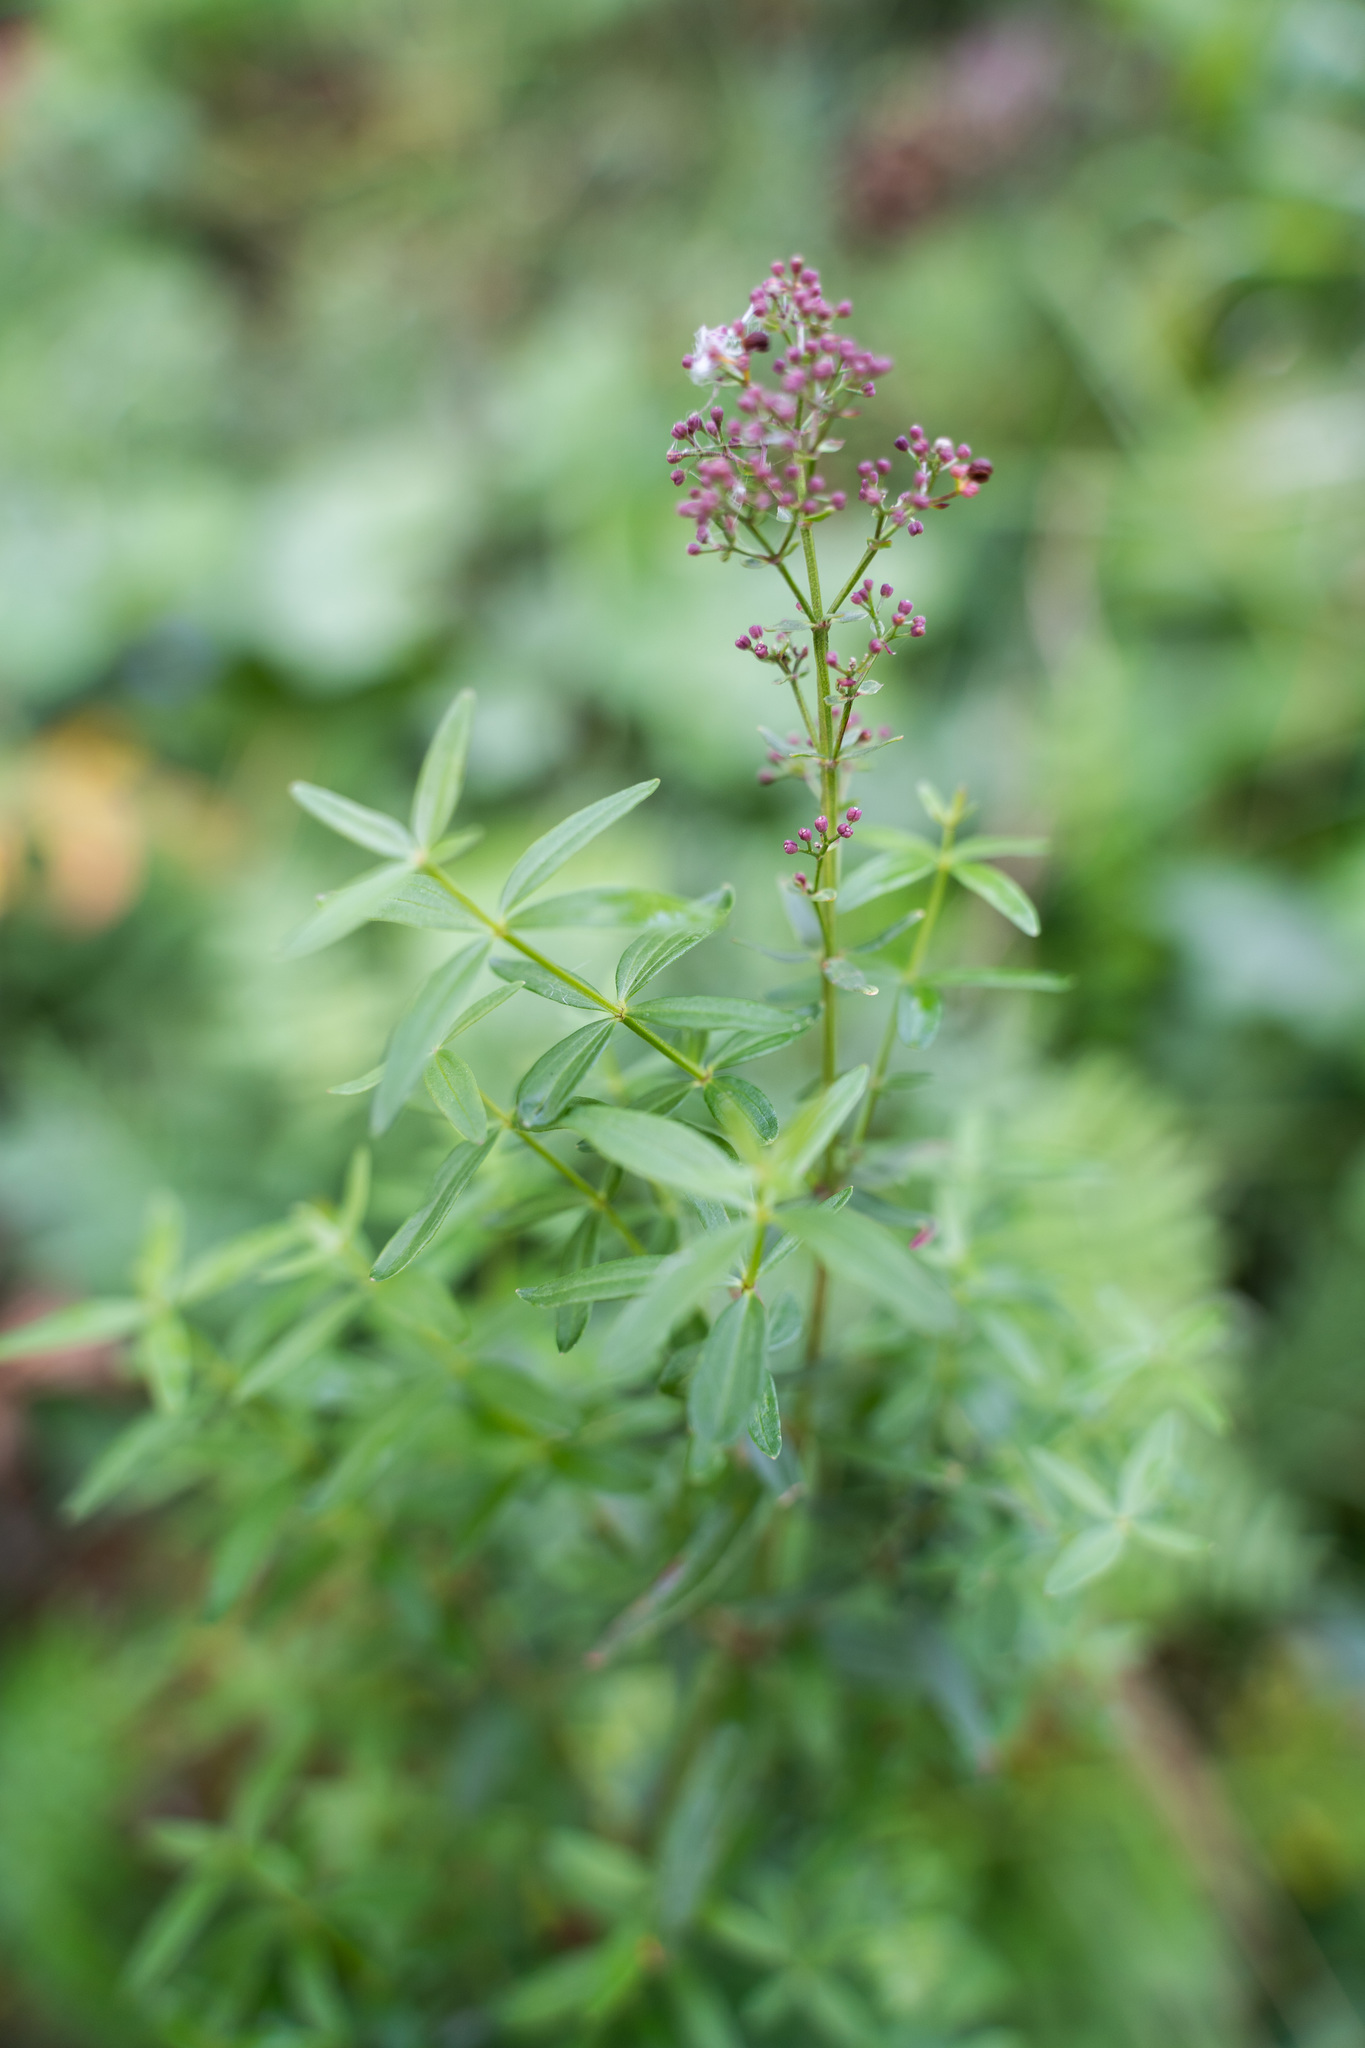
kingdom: Plantae
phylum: Tracheophyta
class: Magnoliopsida
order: Gentianales
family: Rubiaceae
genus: Galium
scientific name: Galium boreale
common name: Northern bedstraw
